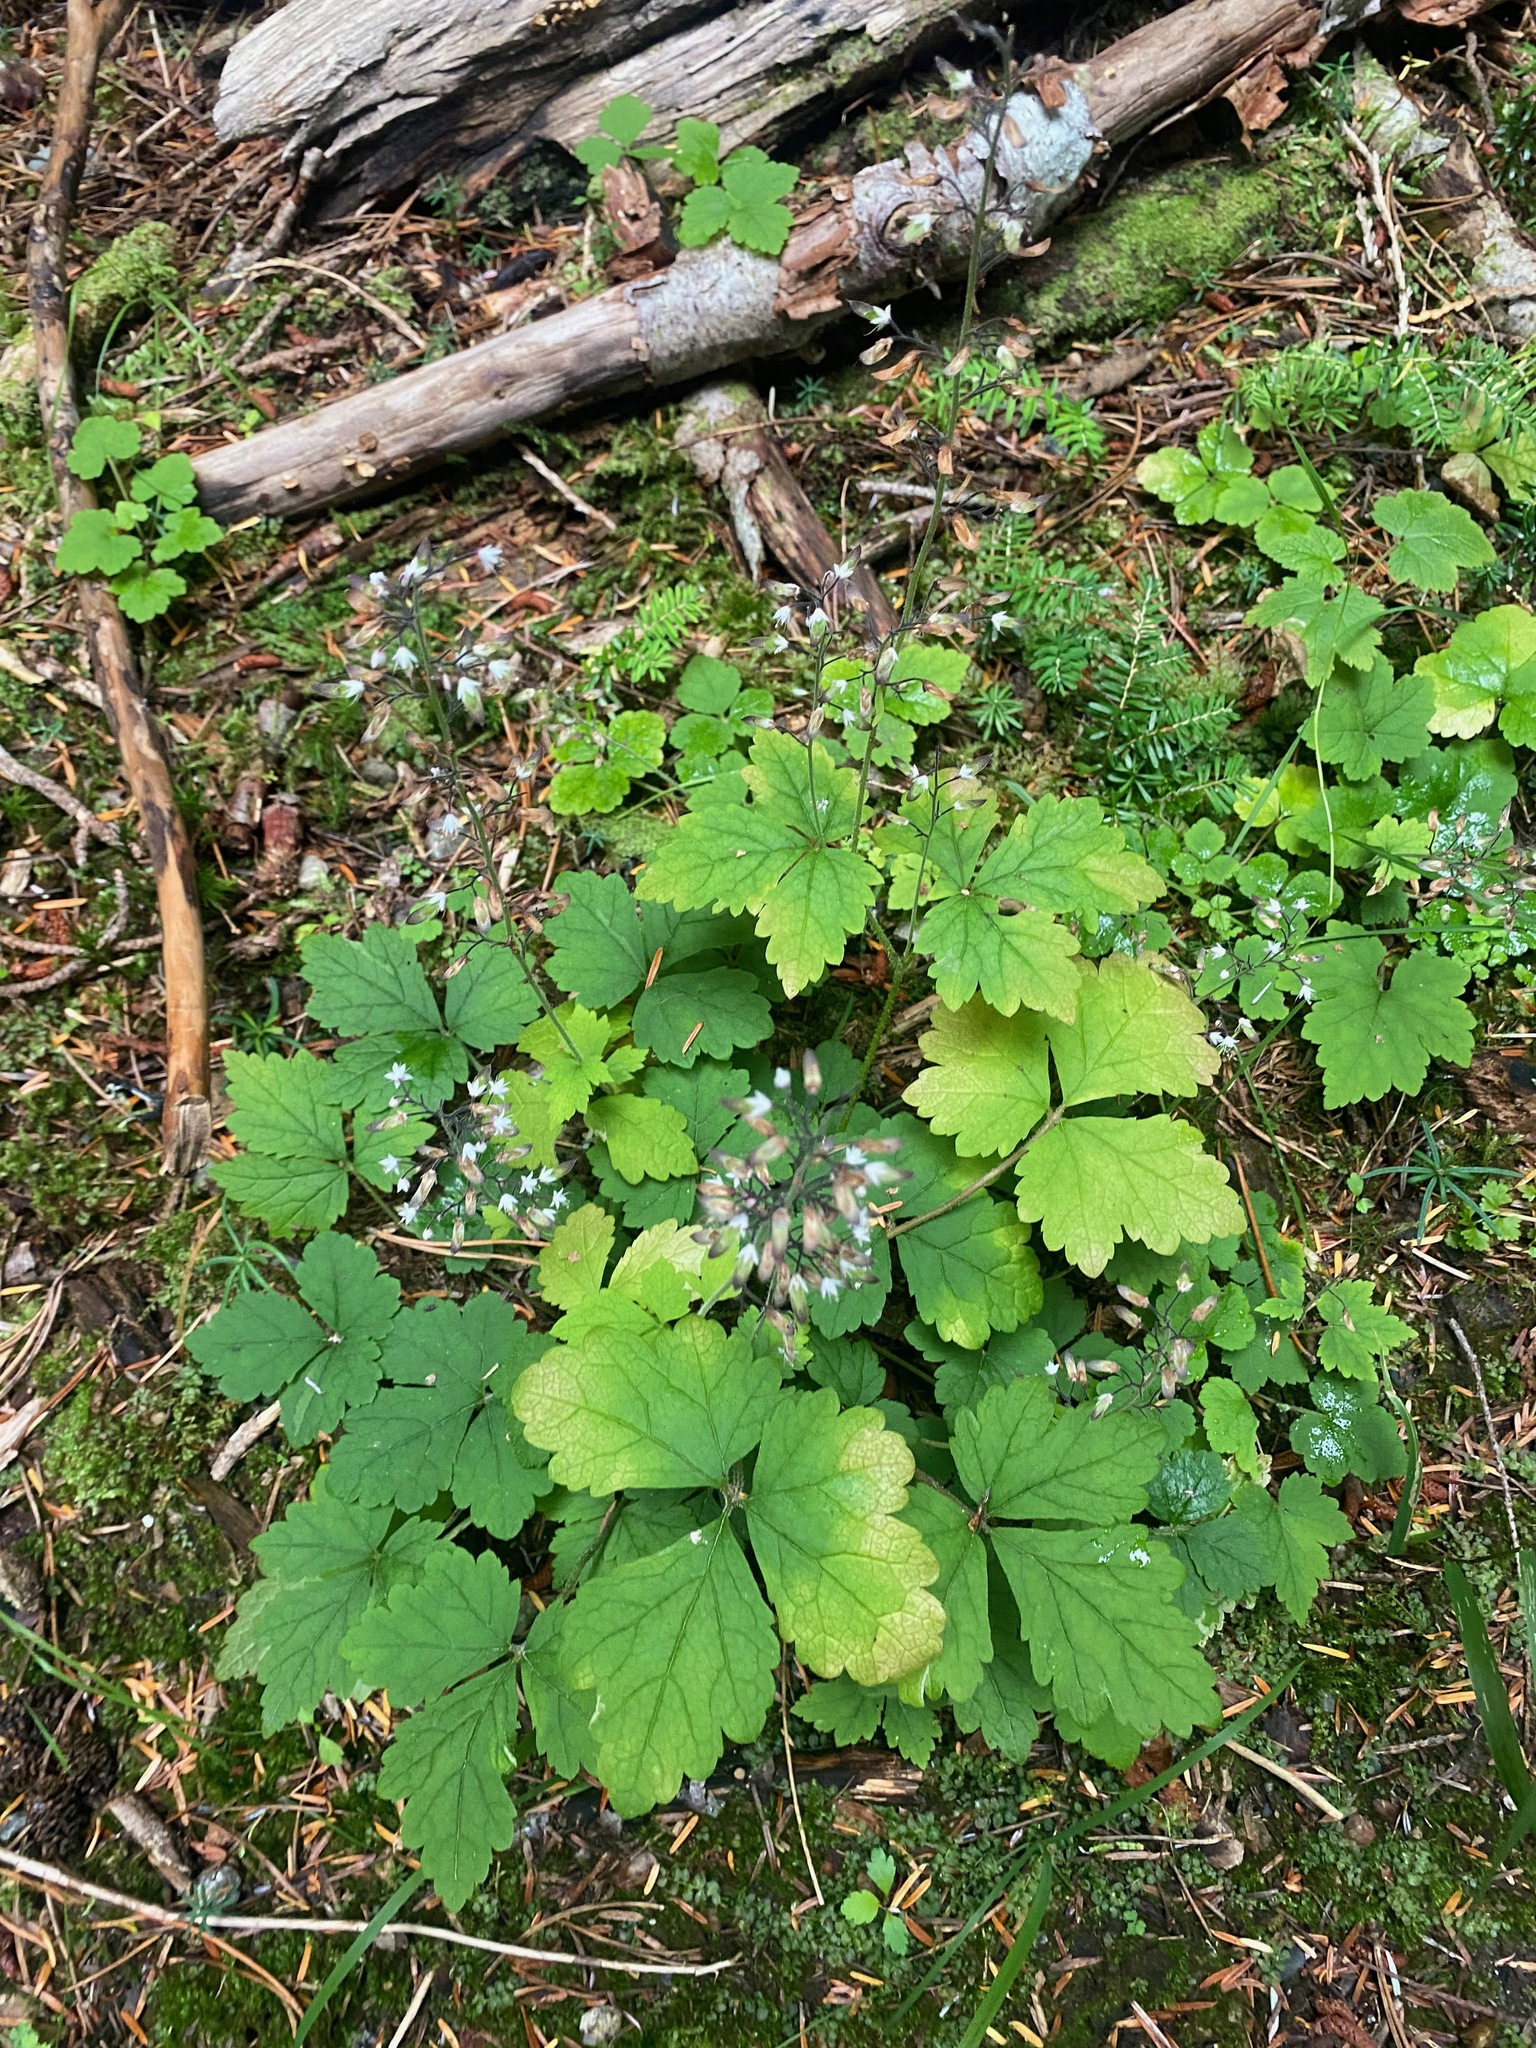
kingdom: Plantae
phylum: Tracheophyta
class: Magnoliopsida
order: Saxifragales
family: Saxifragaceae
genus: Tiarella
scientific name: Tiarella trifoliata
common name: Sugar-scoop
